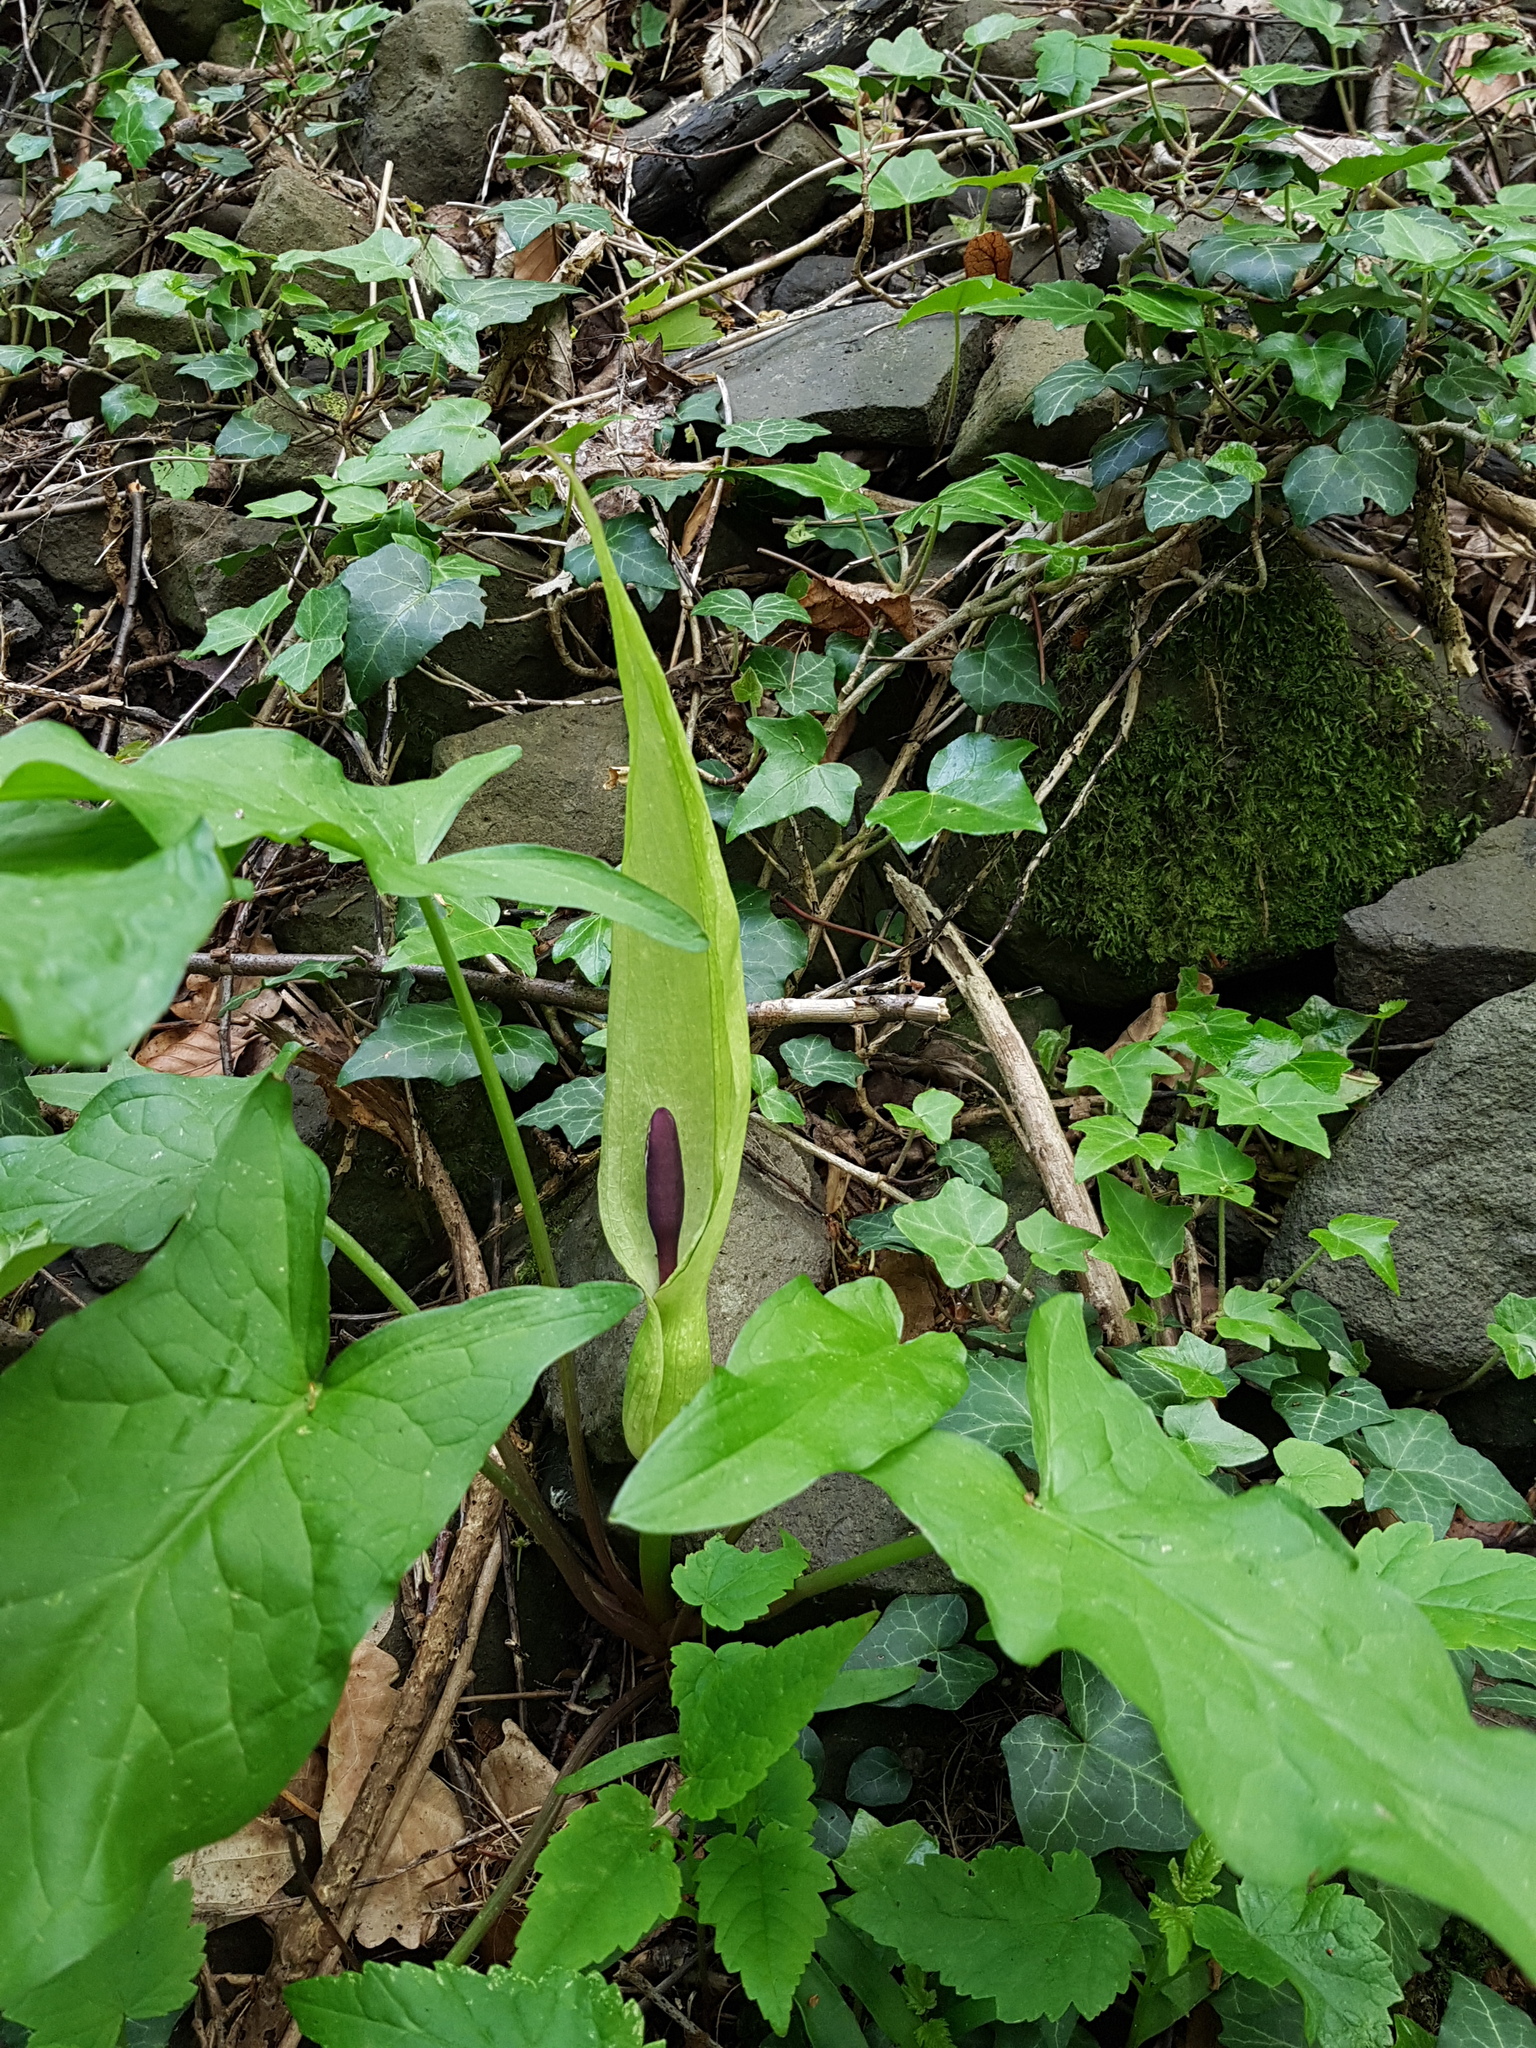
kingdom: Plantae
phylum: Tracheophyta
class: Liliopsida
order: Alismatales
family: Araceae
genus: Arum
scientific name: Arum maculatum
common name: Lords-and-ladies
